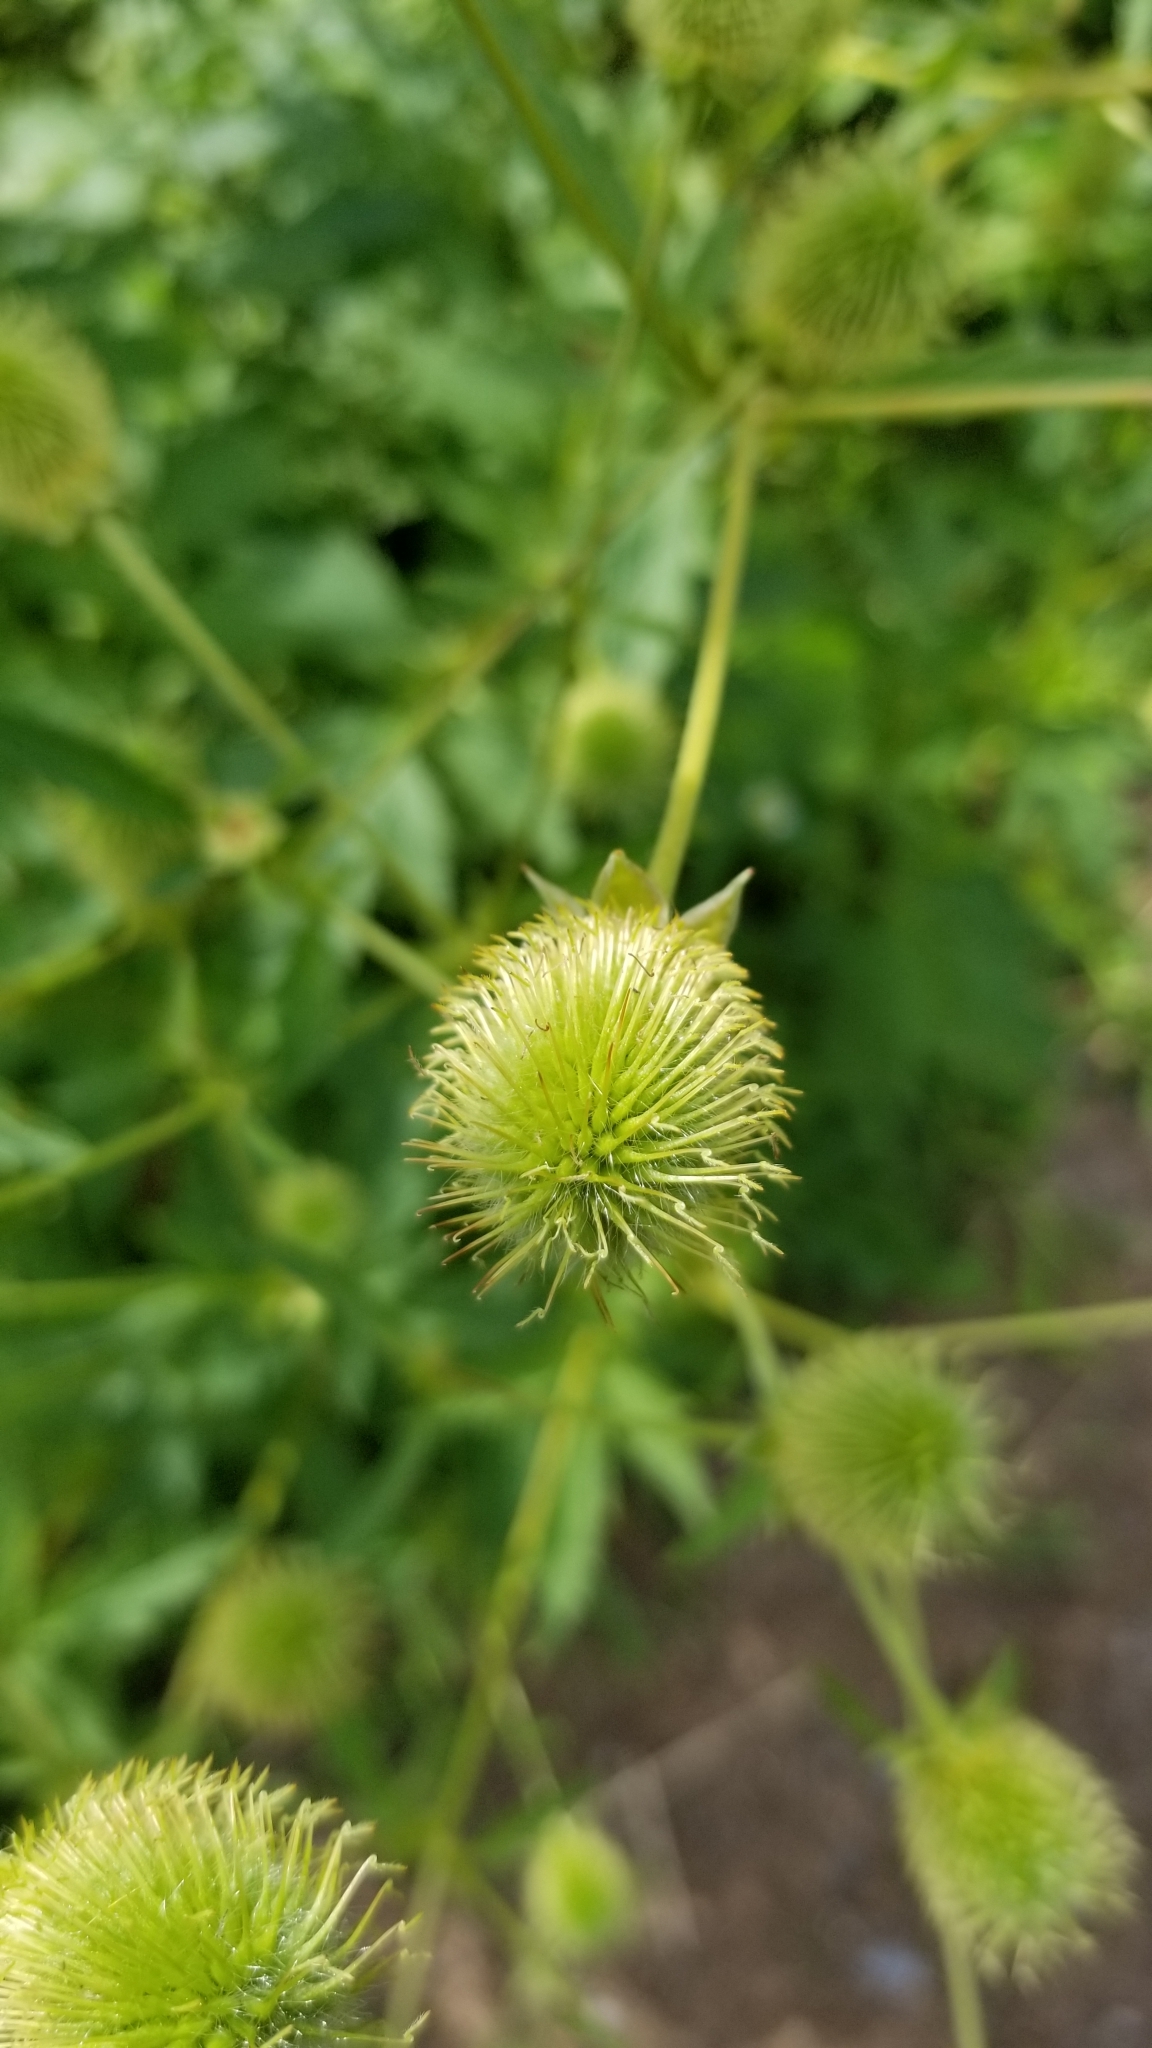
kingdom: Plantae
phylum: Tracheophyta
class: Magnoliopsida
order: Rosales
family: Rosaceae
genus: Geum
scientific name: Geum aleppicum
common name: Yellow avens
